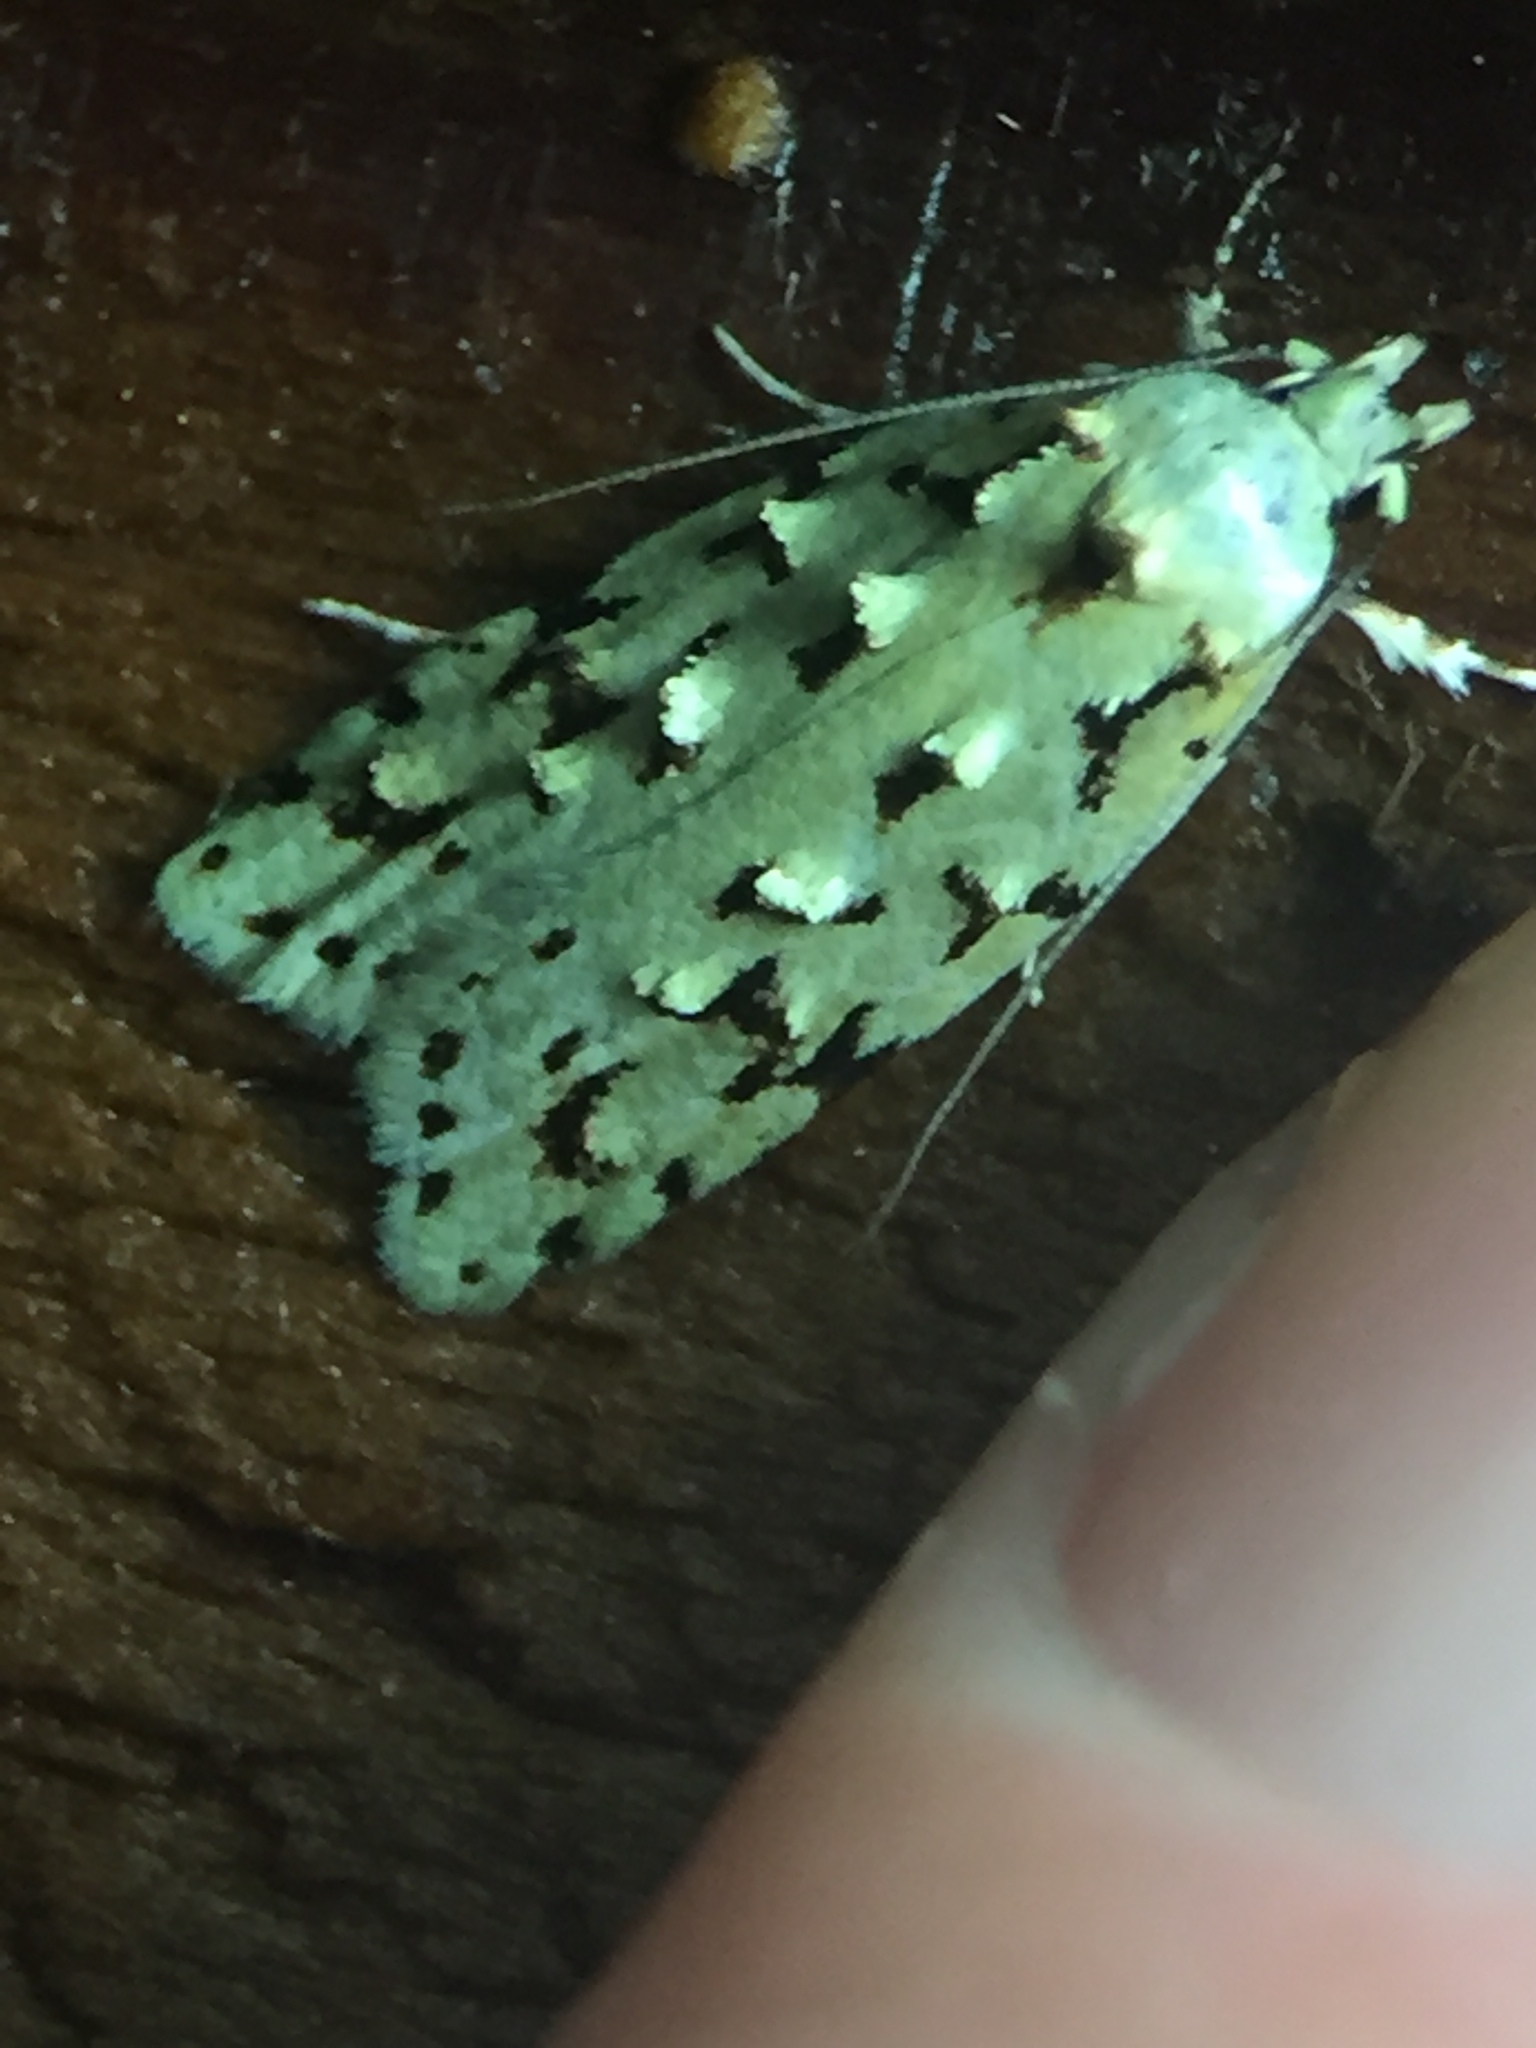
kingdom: Animalia
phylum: Arthropoda
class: Insecta
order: Lepidoptera
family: Oecophoridae
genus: Izatha
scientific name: Izatha peroneanella
